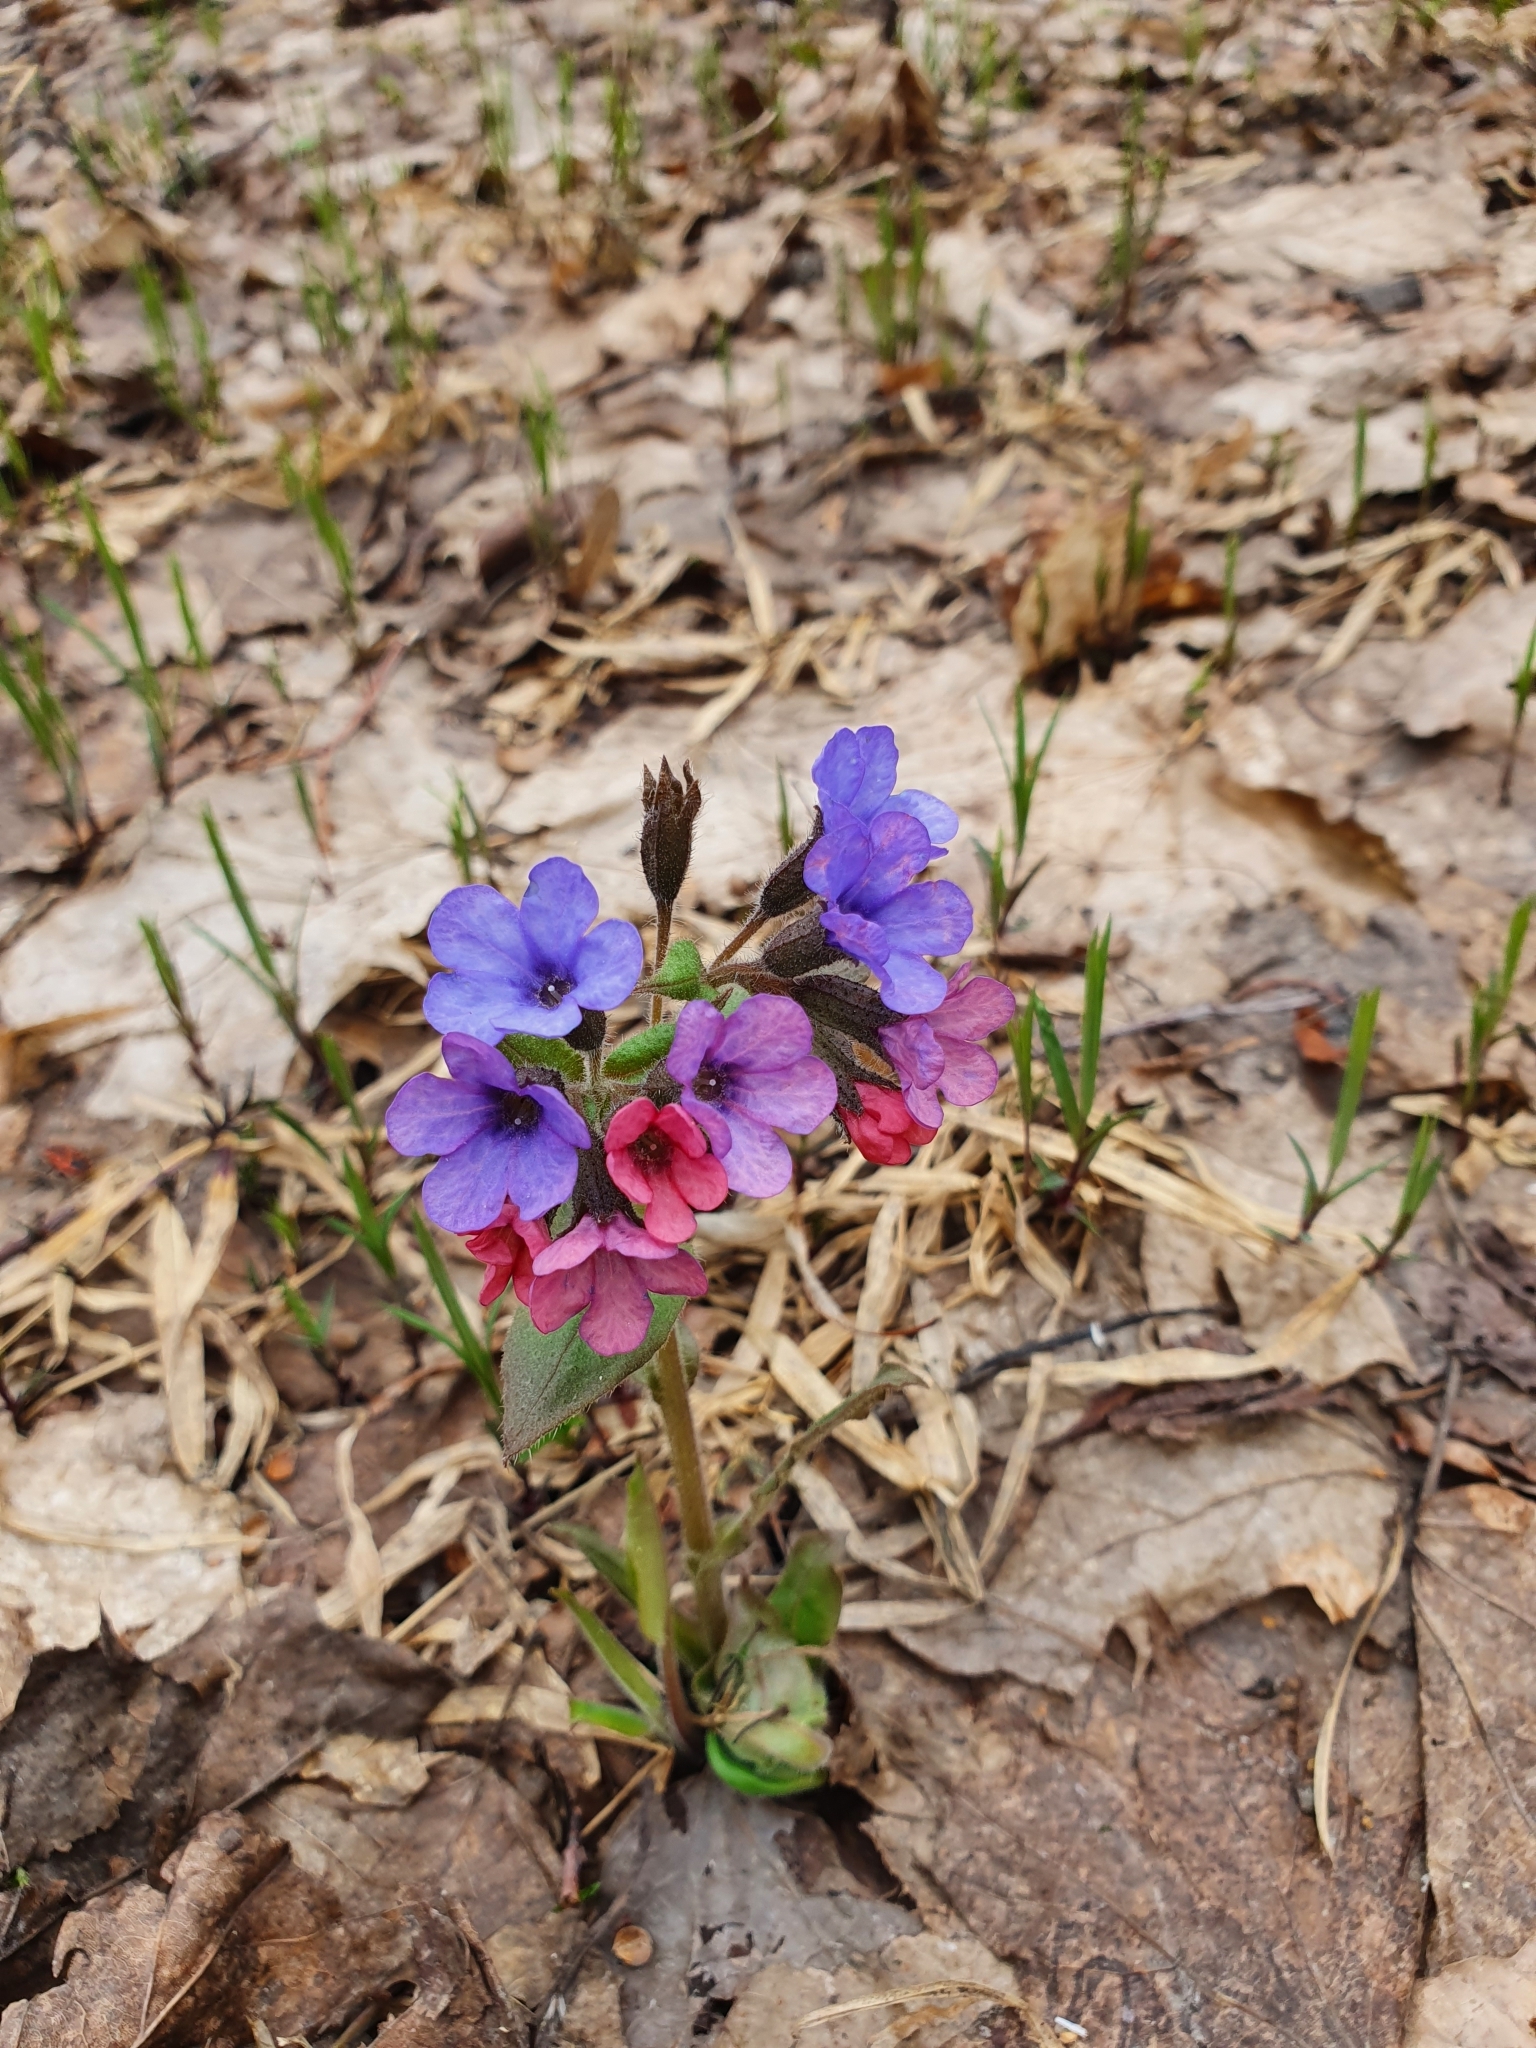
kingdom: Plantae
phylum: Tracheophyta
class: Magnoliopsida
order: Boraginales
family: Boraginaceae
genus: Pulmonaria
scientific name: Pulmonaria obscura
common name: Suffolk lungwort
